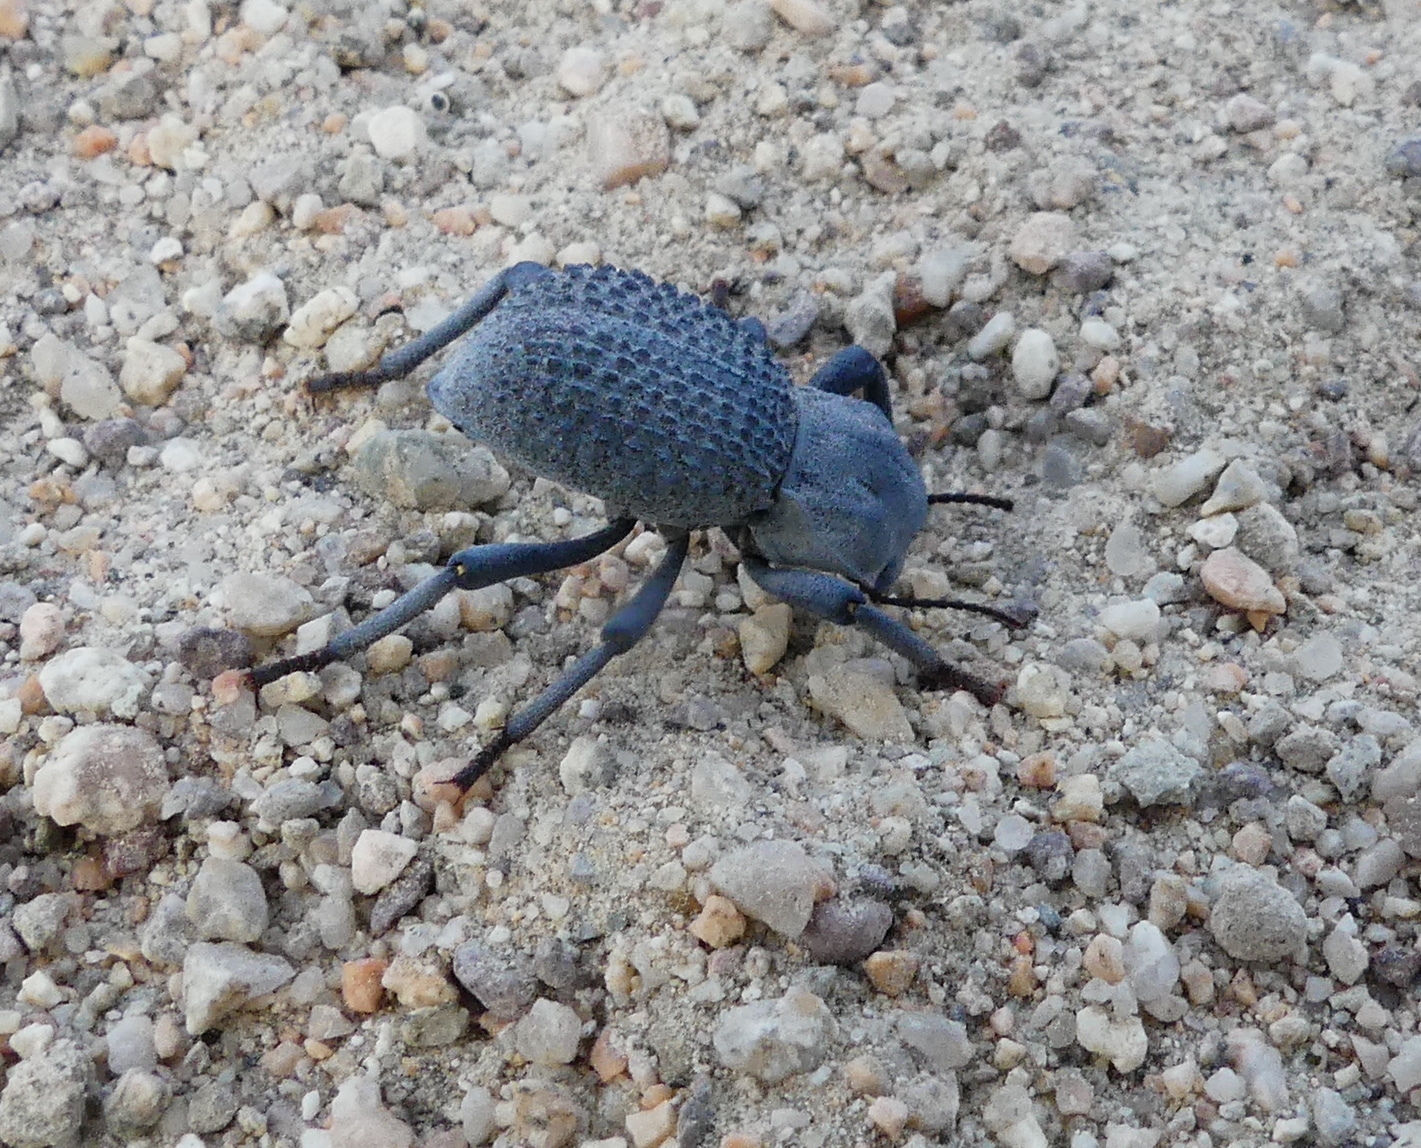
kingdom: Animalia
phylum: Arthropoda
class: Insecta
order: Coleoptera
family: Tenebrionidae
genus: Asbolus
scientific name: Asbolus verrucosus
